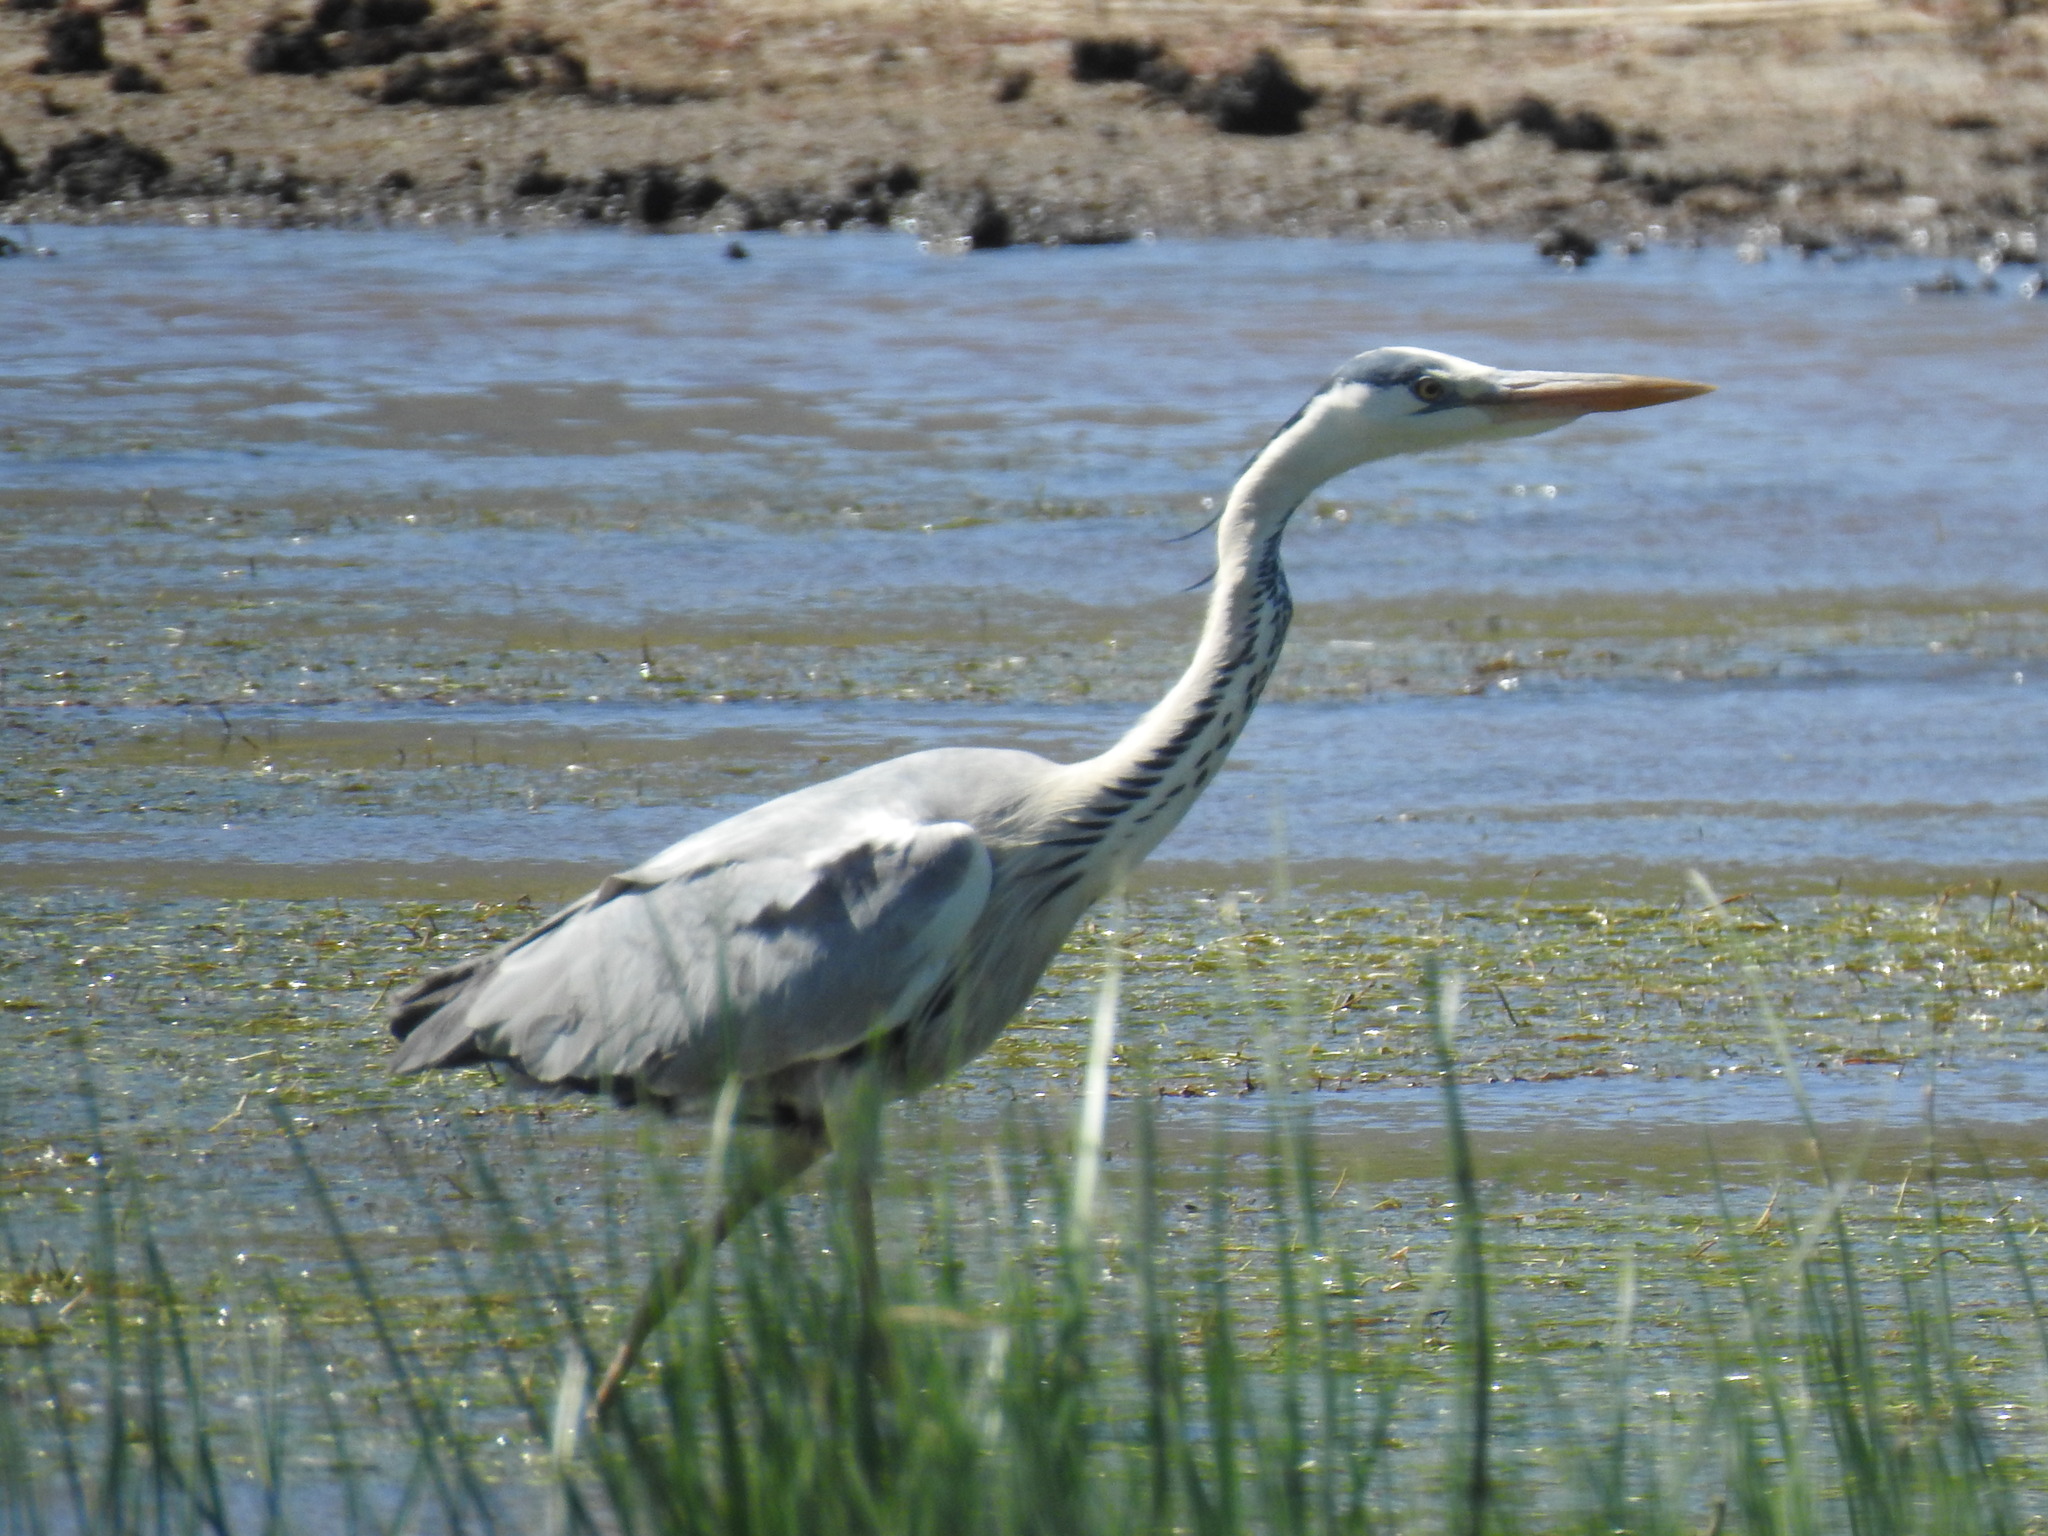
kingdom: Animalia
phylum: Chordata
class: Aves
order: Pelecaniformes
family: Ardeidae
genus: Ardea
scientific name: Ardea cinerea
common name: Grey heron
